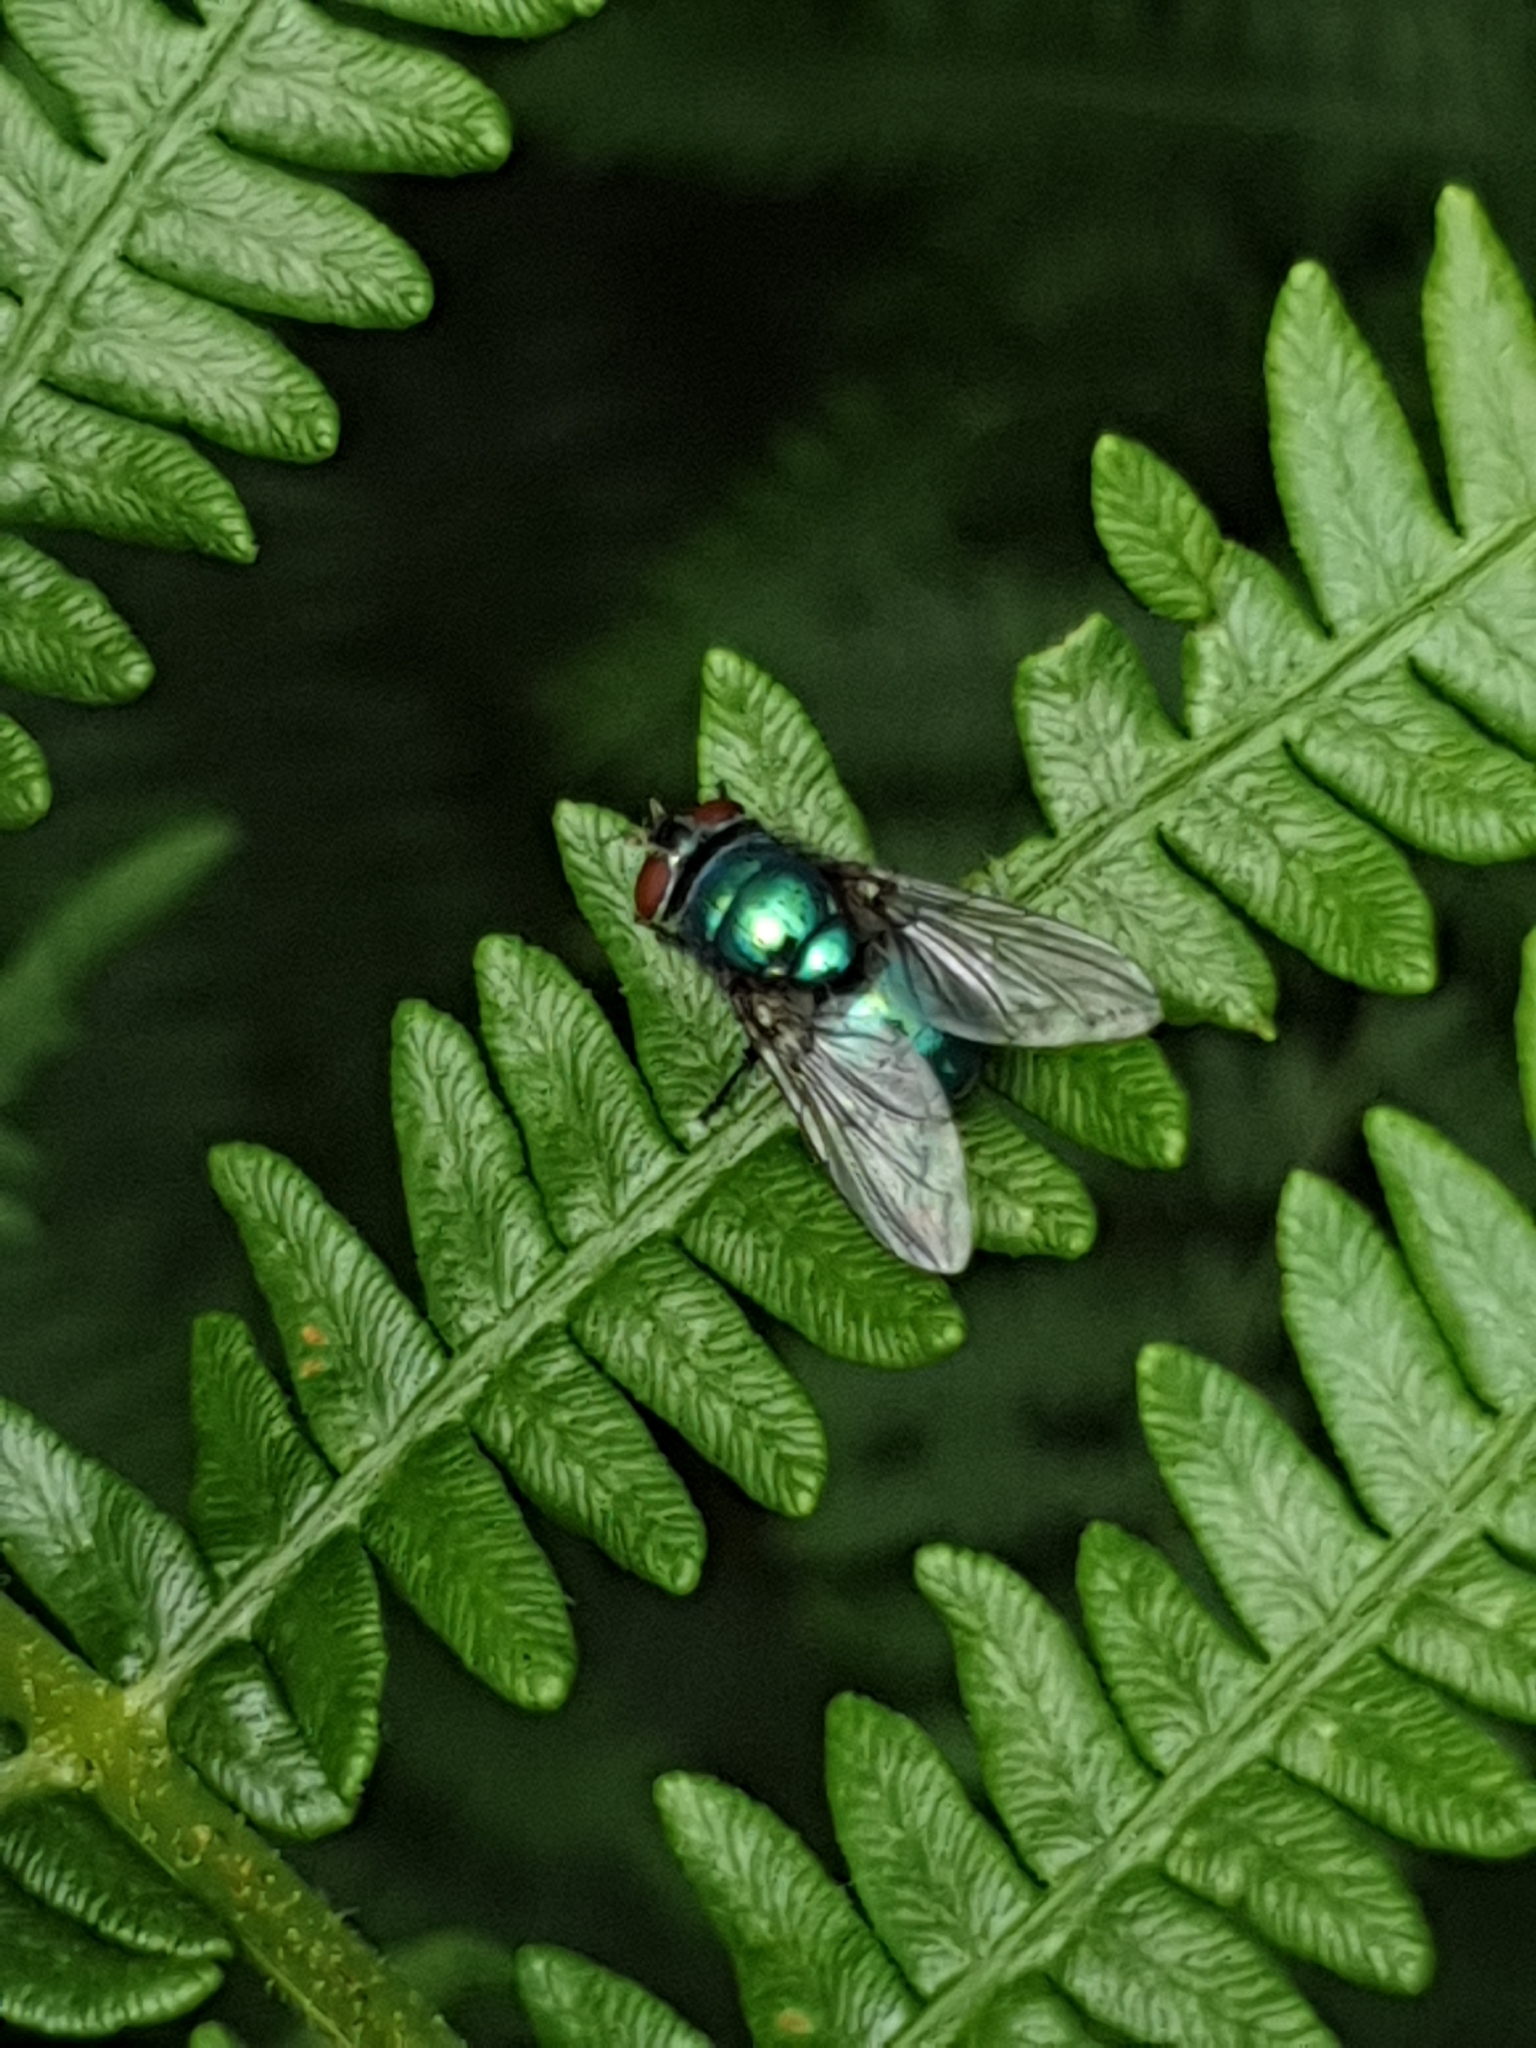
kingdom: Animalia
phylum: Arthropoda
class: Insecta
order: Diptera
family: Calliphoridae
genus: Lucilia
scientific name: Lucilia
